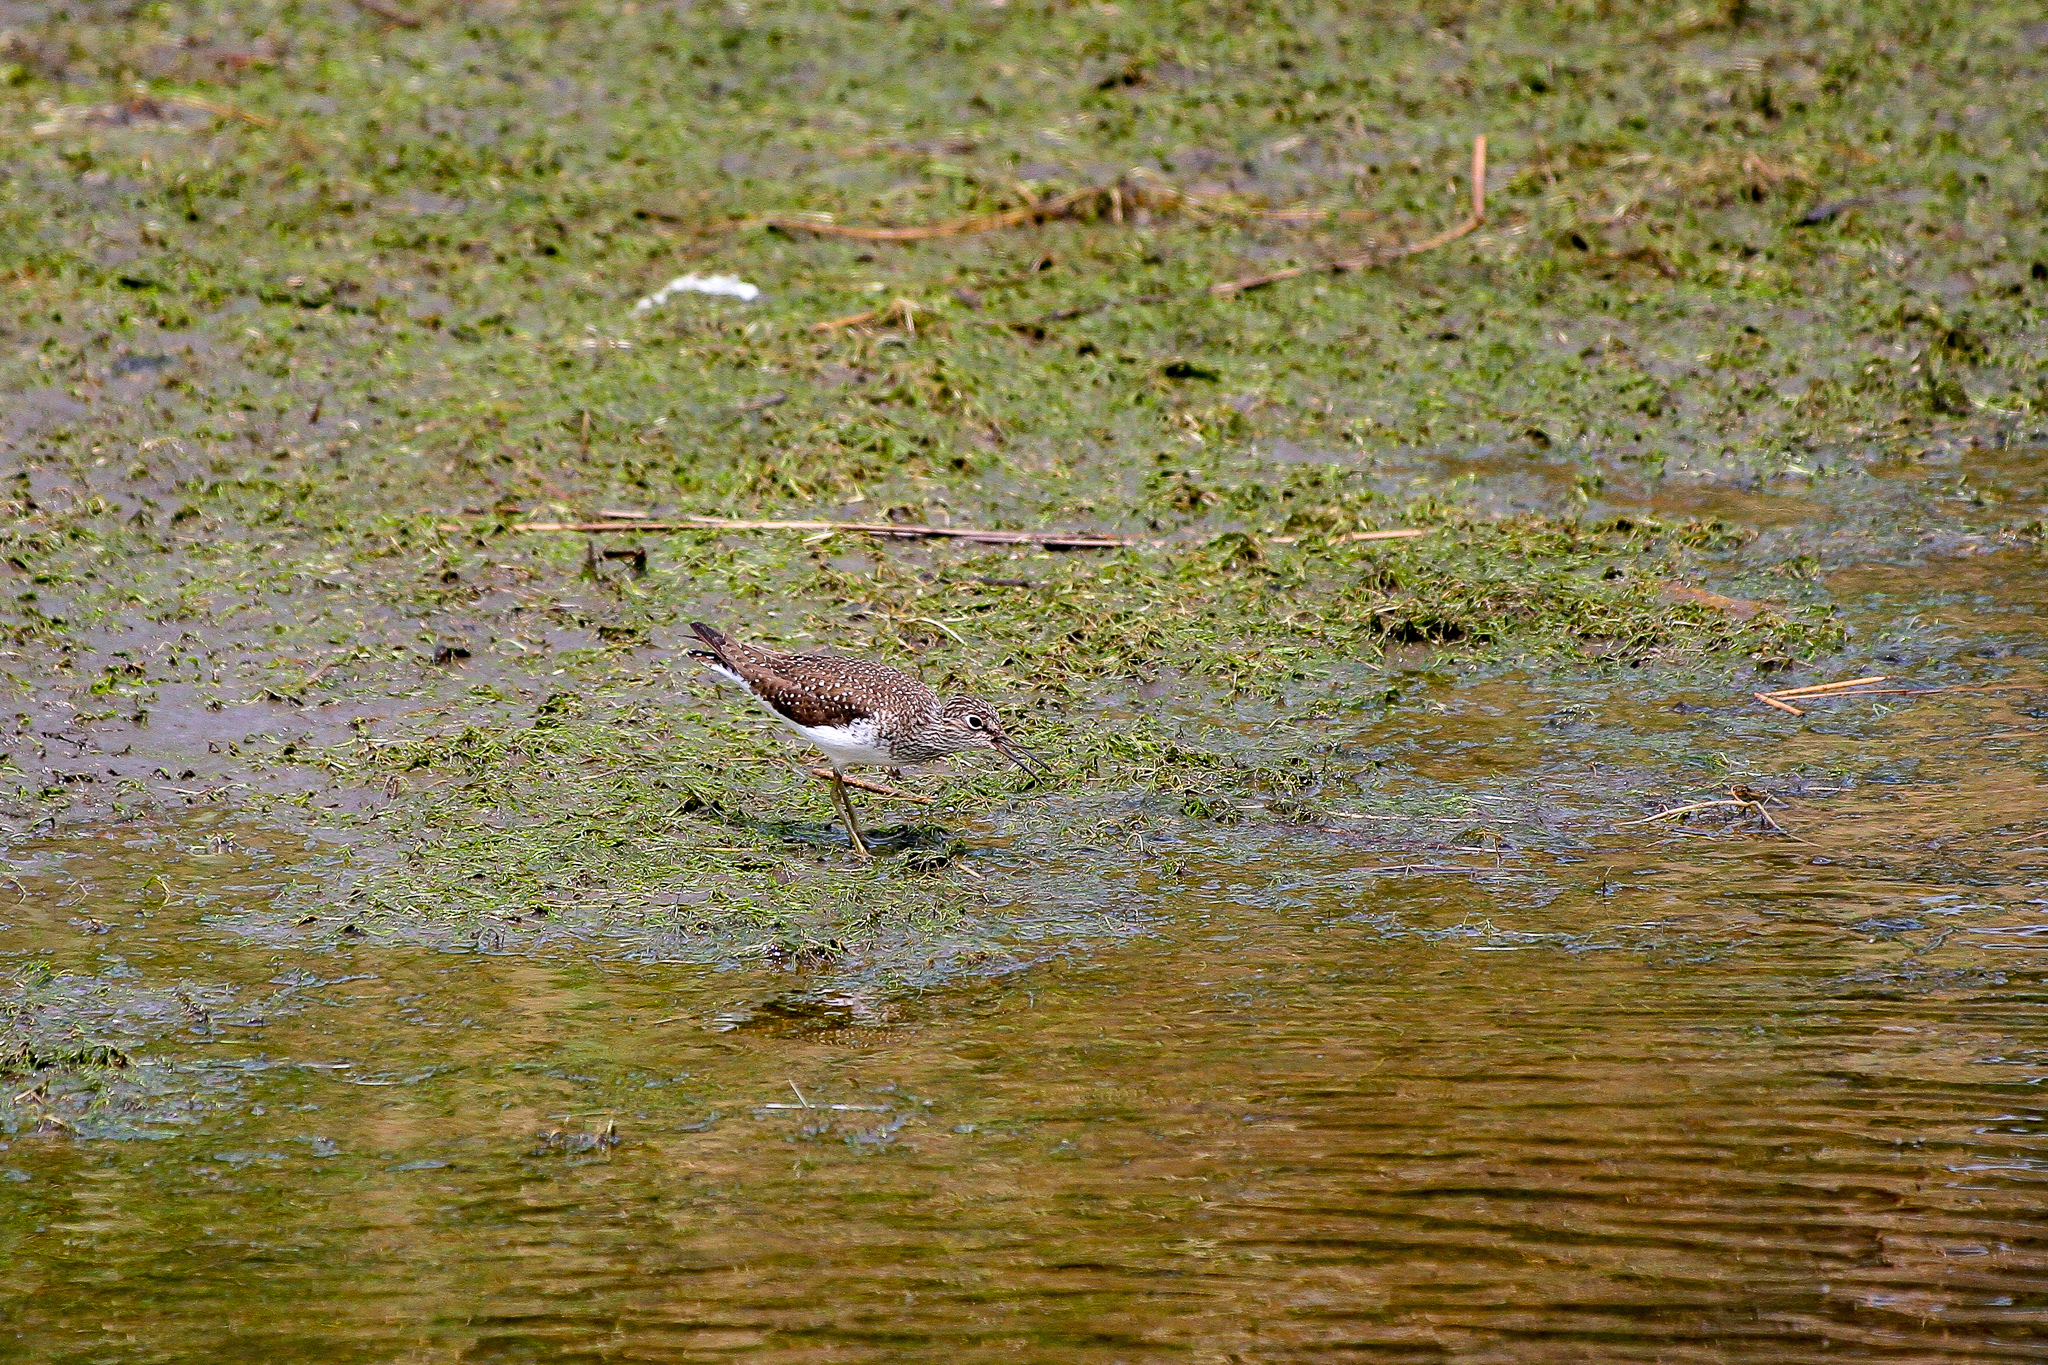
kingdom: Animalia
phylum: Chordata
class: Aves
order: Charadriiformes
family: Scolopacidae
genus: Tringa
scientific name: Tringa solitaria
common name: Solitary sandpiper
